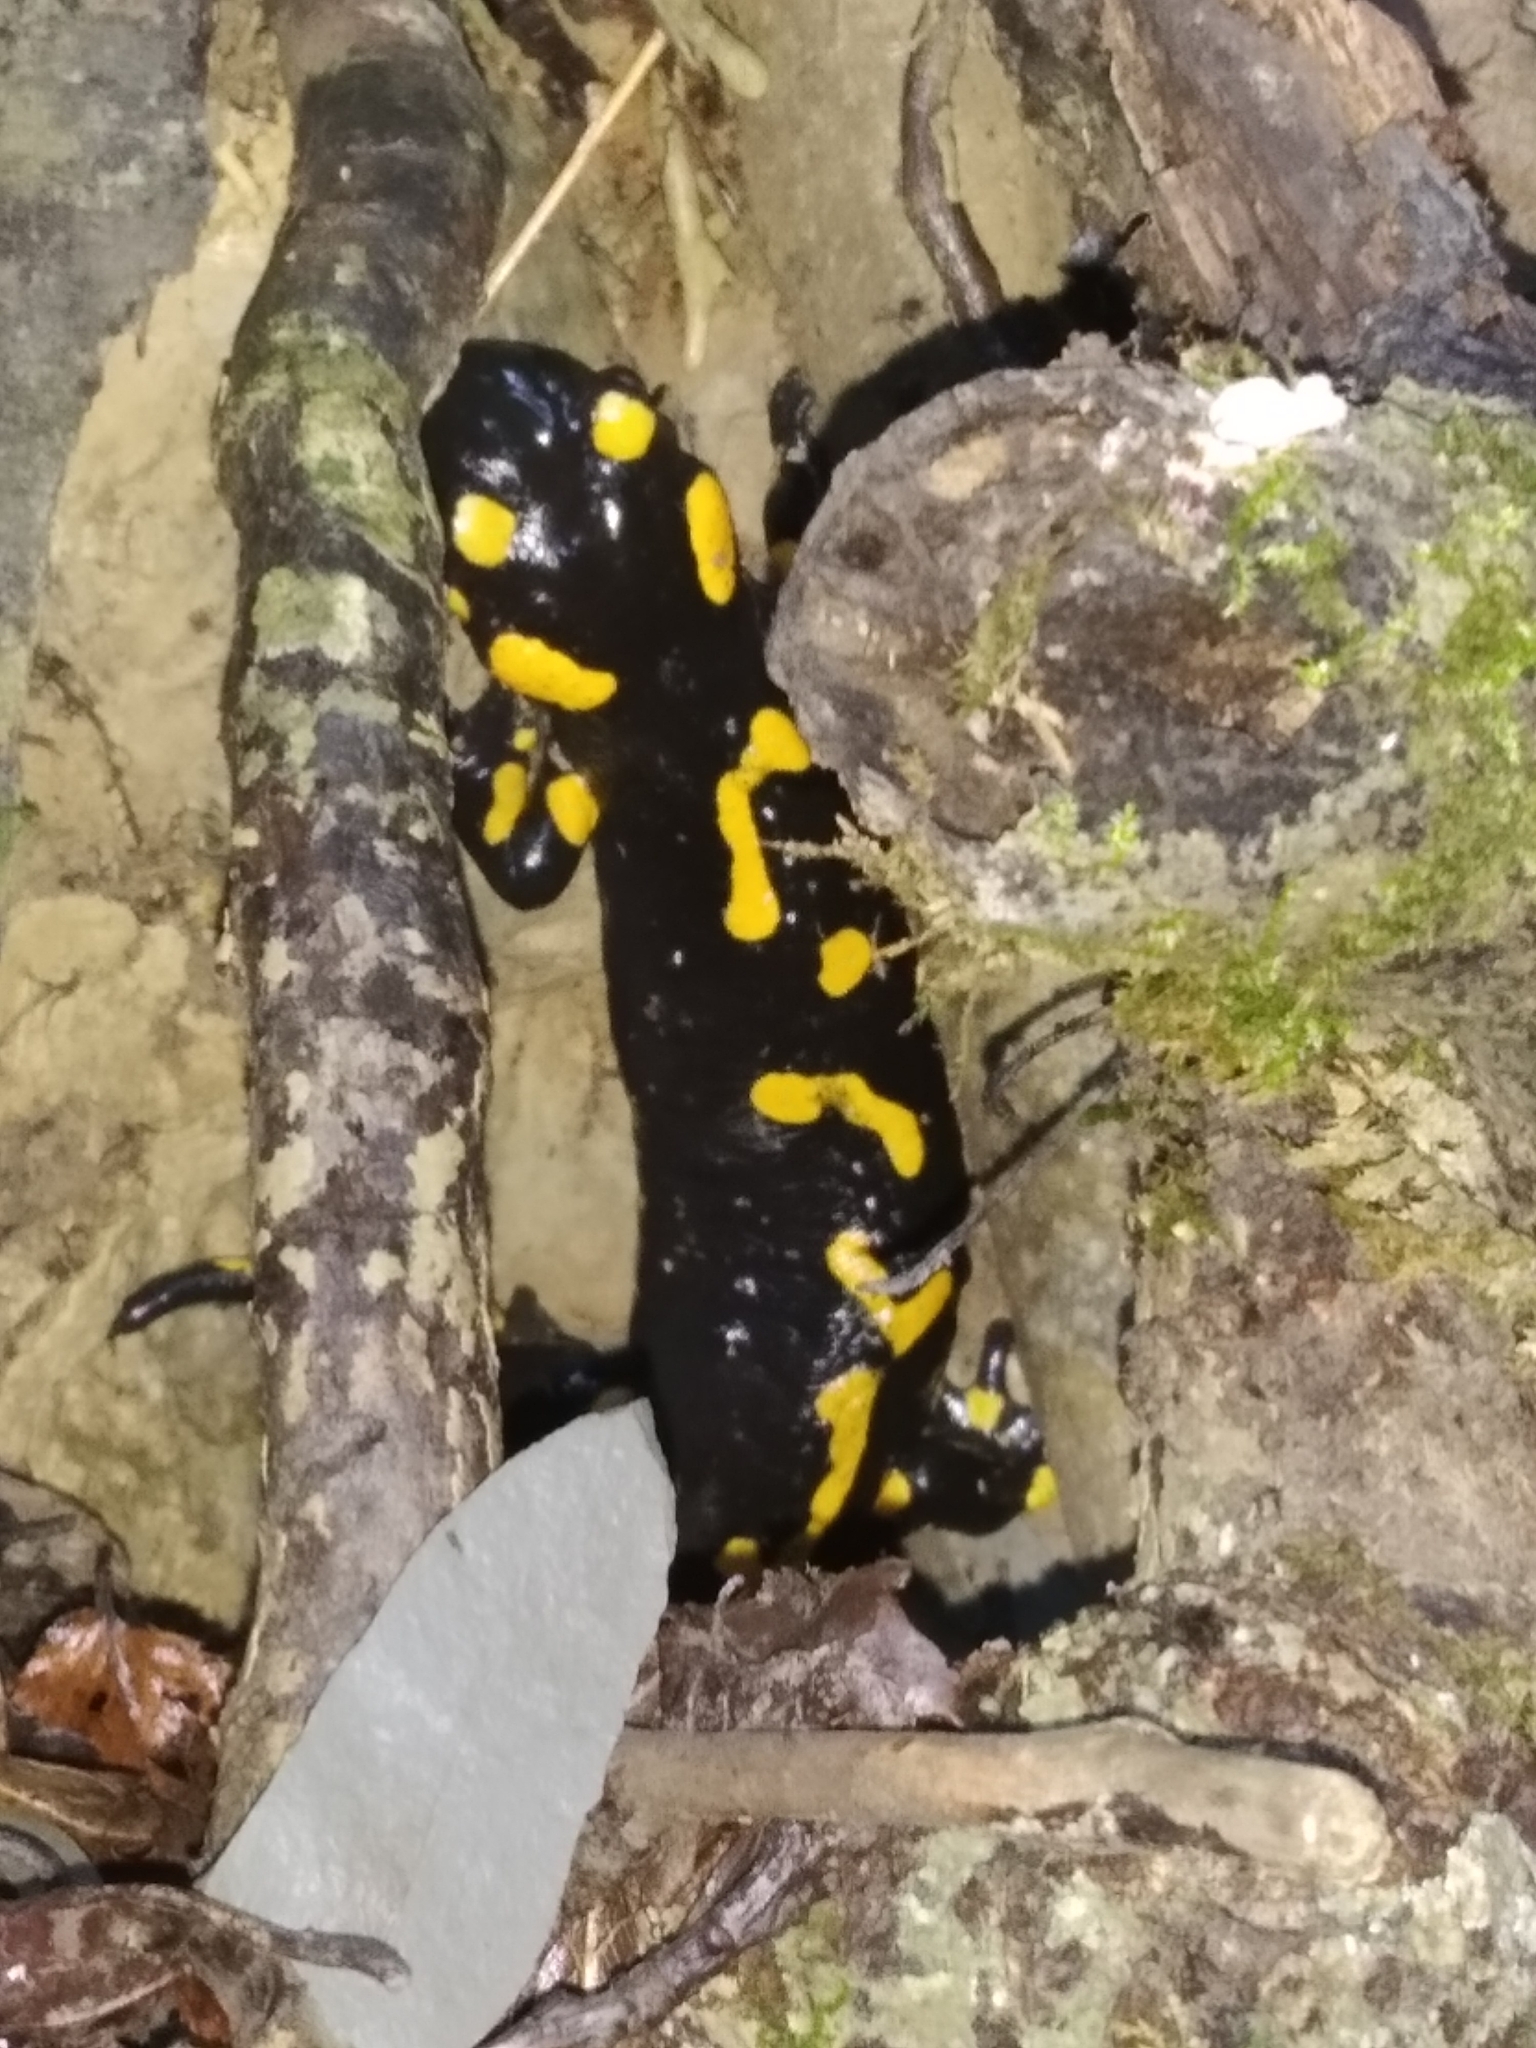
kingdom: Animalia
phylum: Chordata
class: Amphibia
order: Caudata
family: Salamandridae
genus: Salamandra
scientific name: Salamandra salamandra
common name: Fire salamander
